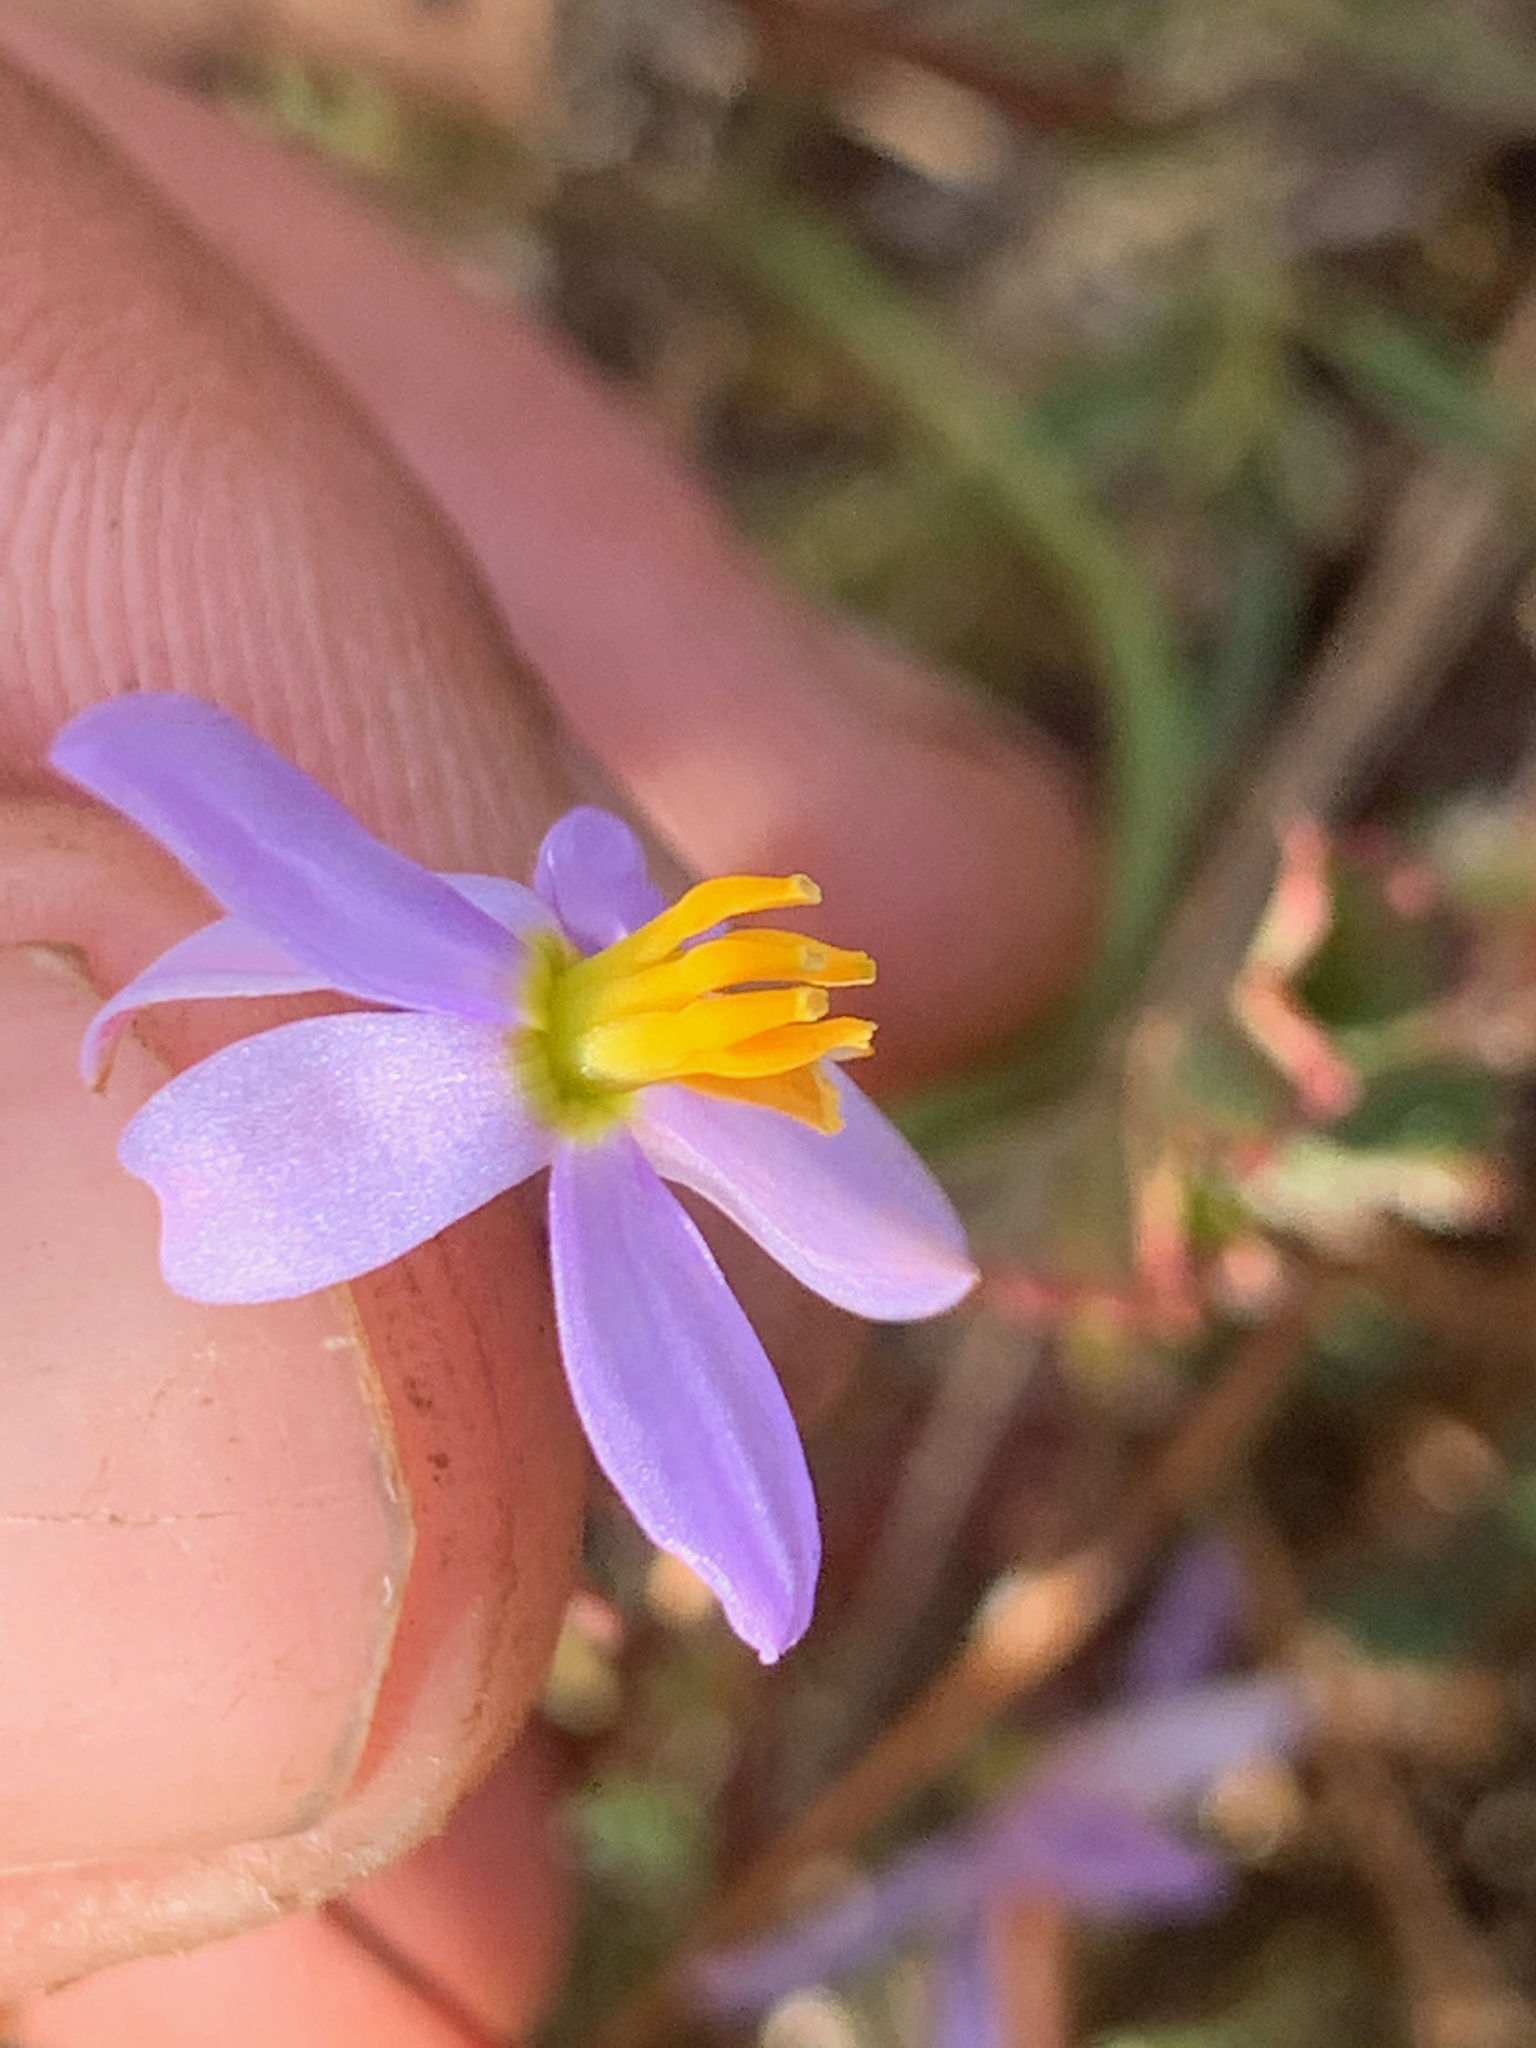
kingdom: Plantae
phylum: Tracheophyta
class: Liliopsida
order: Asparagales
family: Tecophilaeaceae
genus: Cyanella
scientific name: Cyanella hyacinthoides
